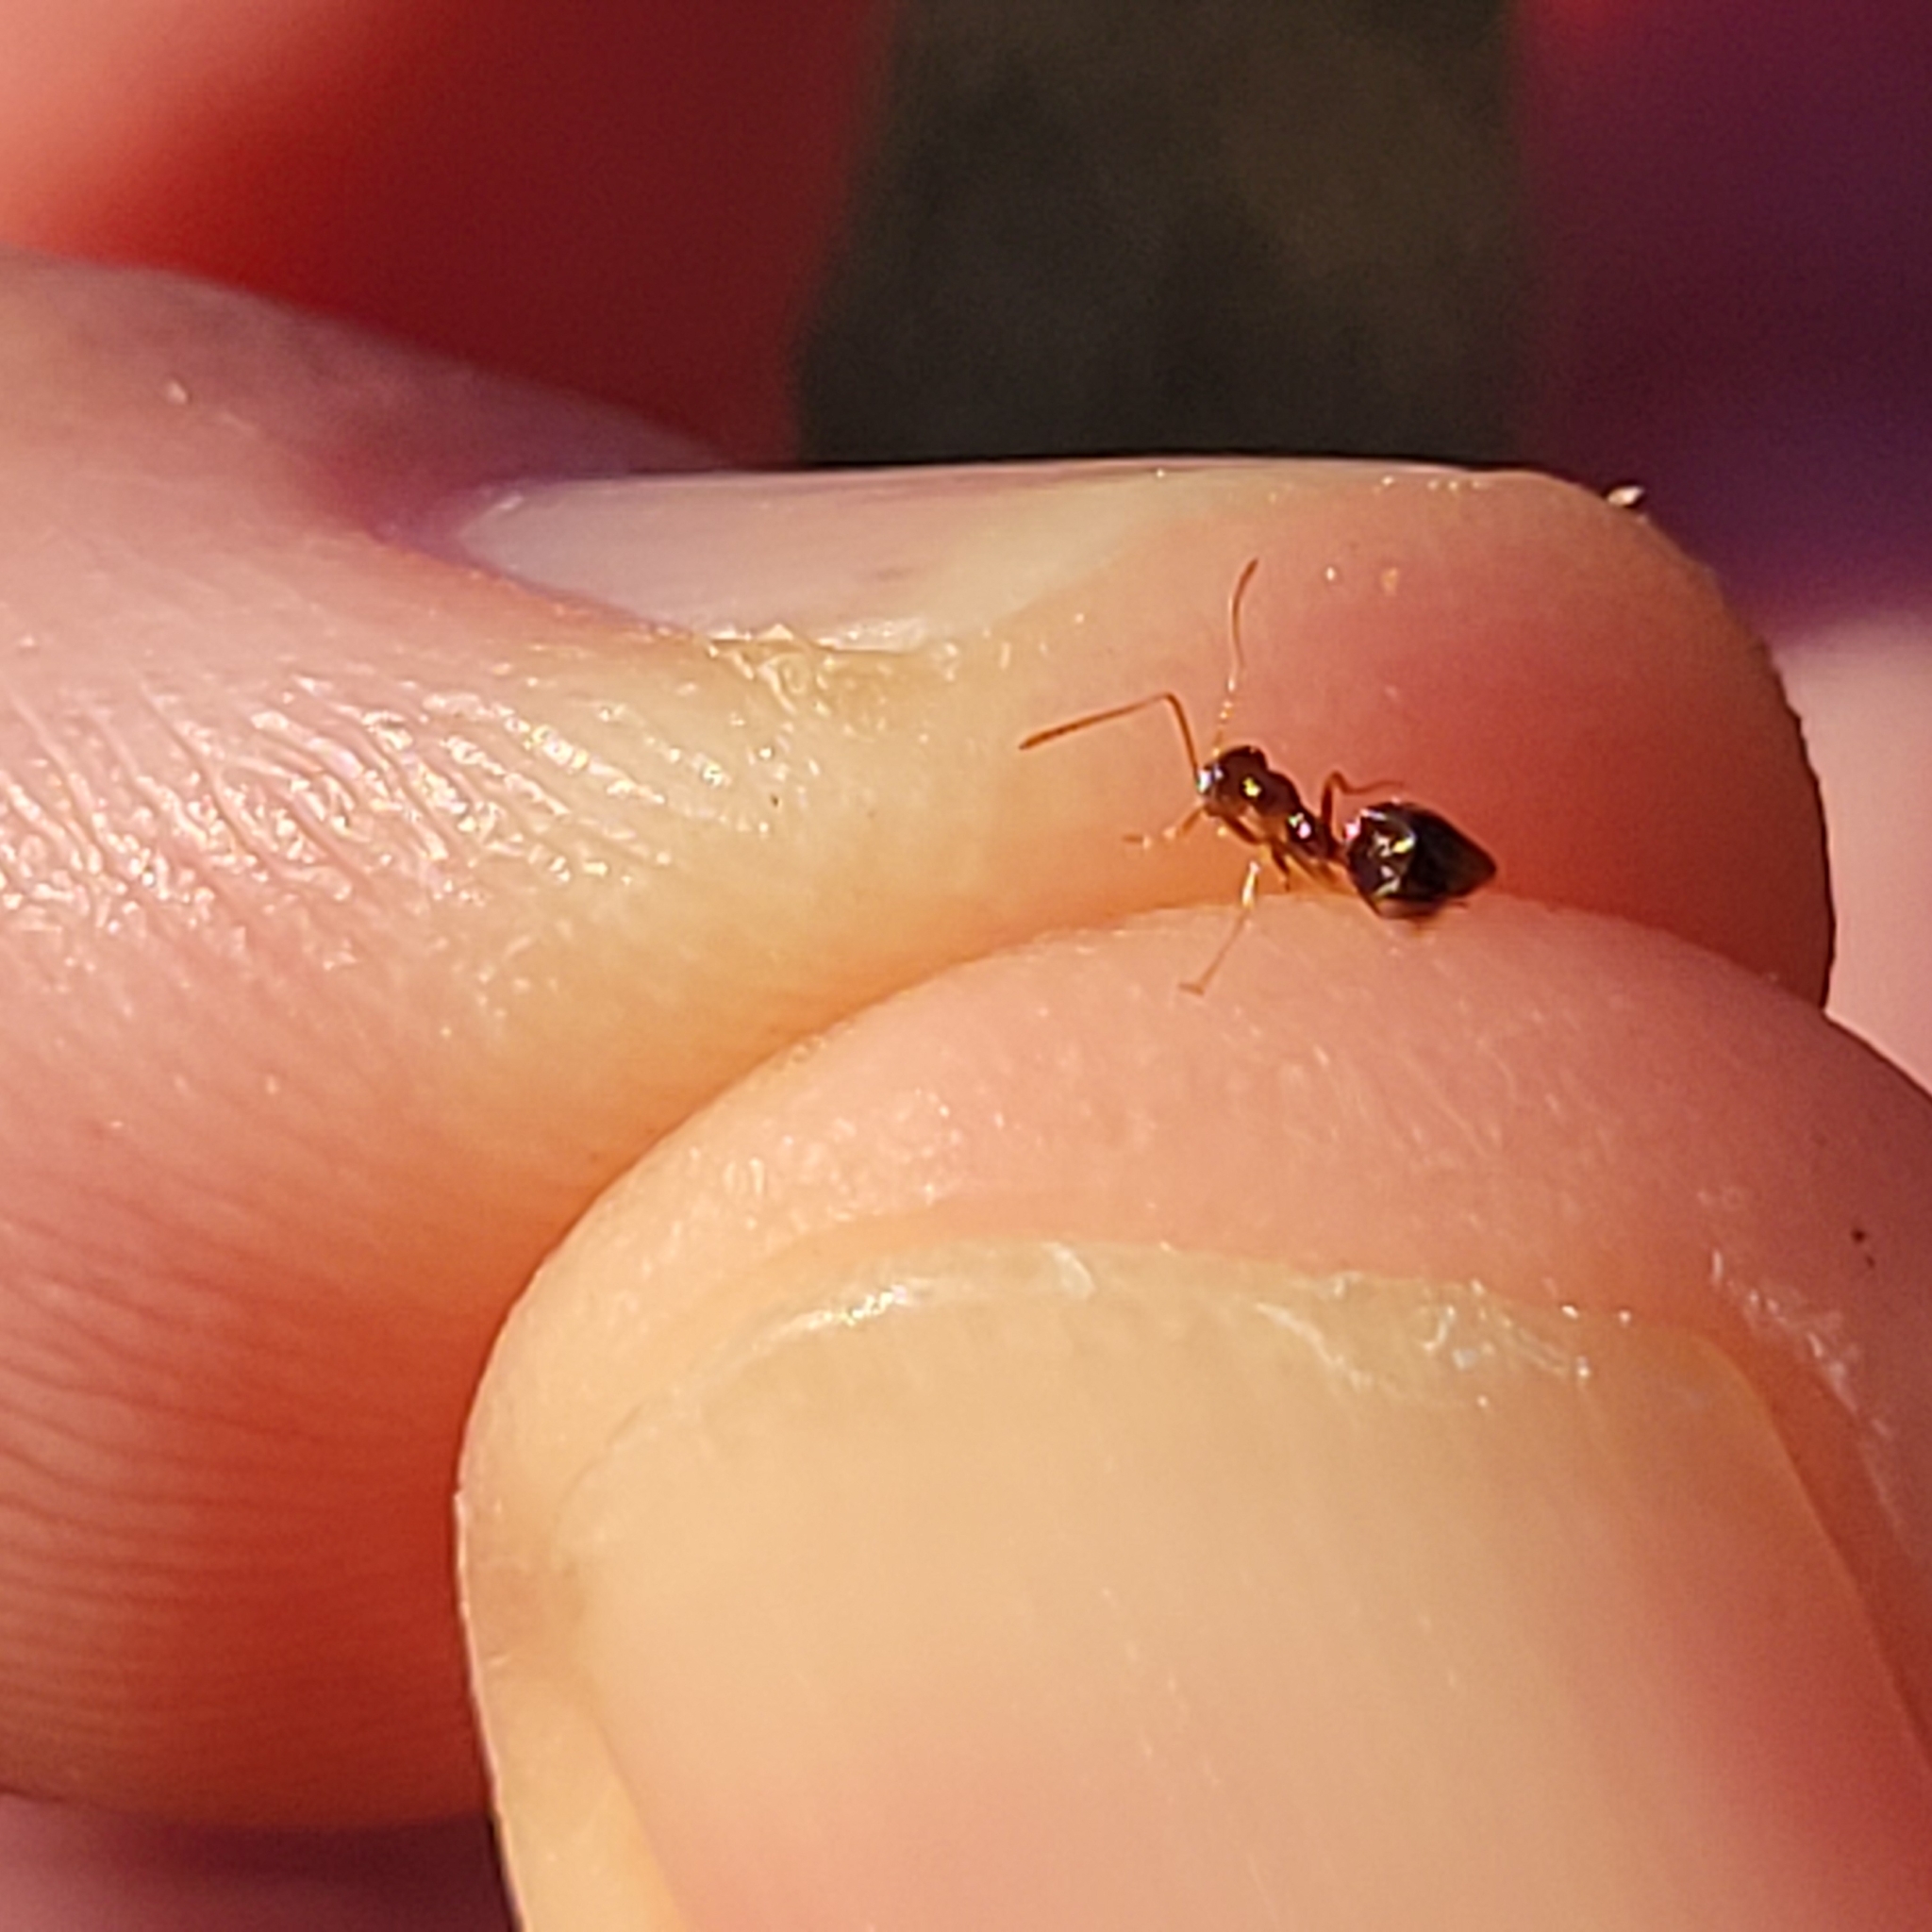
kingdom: Animalia
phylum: Arthropoda
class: Insecta
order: Hymenoptera
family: Formicidae
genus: Prenolepis
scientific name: Prenolepis imparis
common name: Small honey ant
